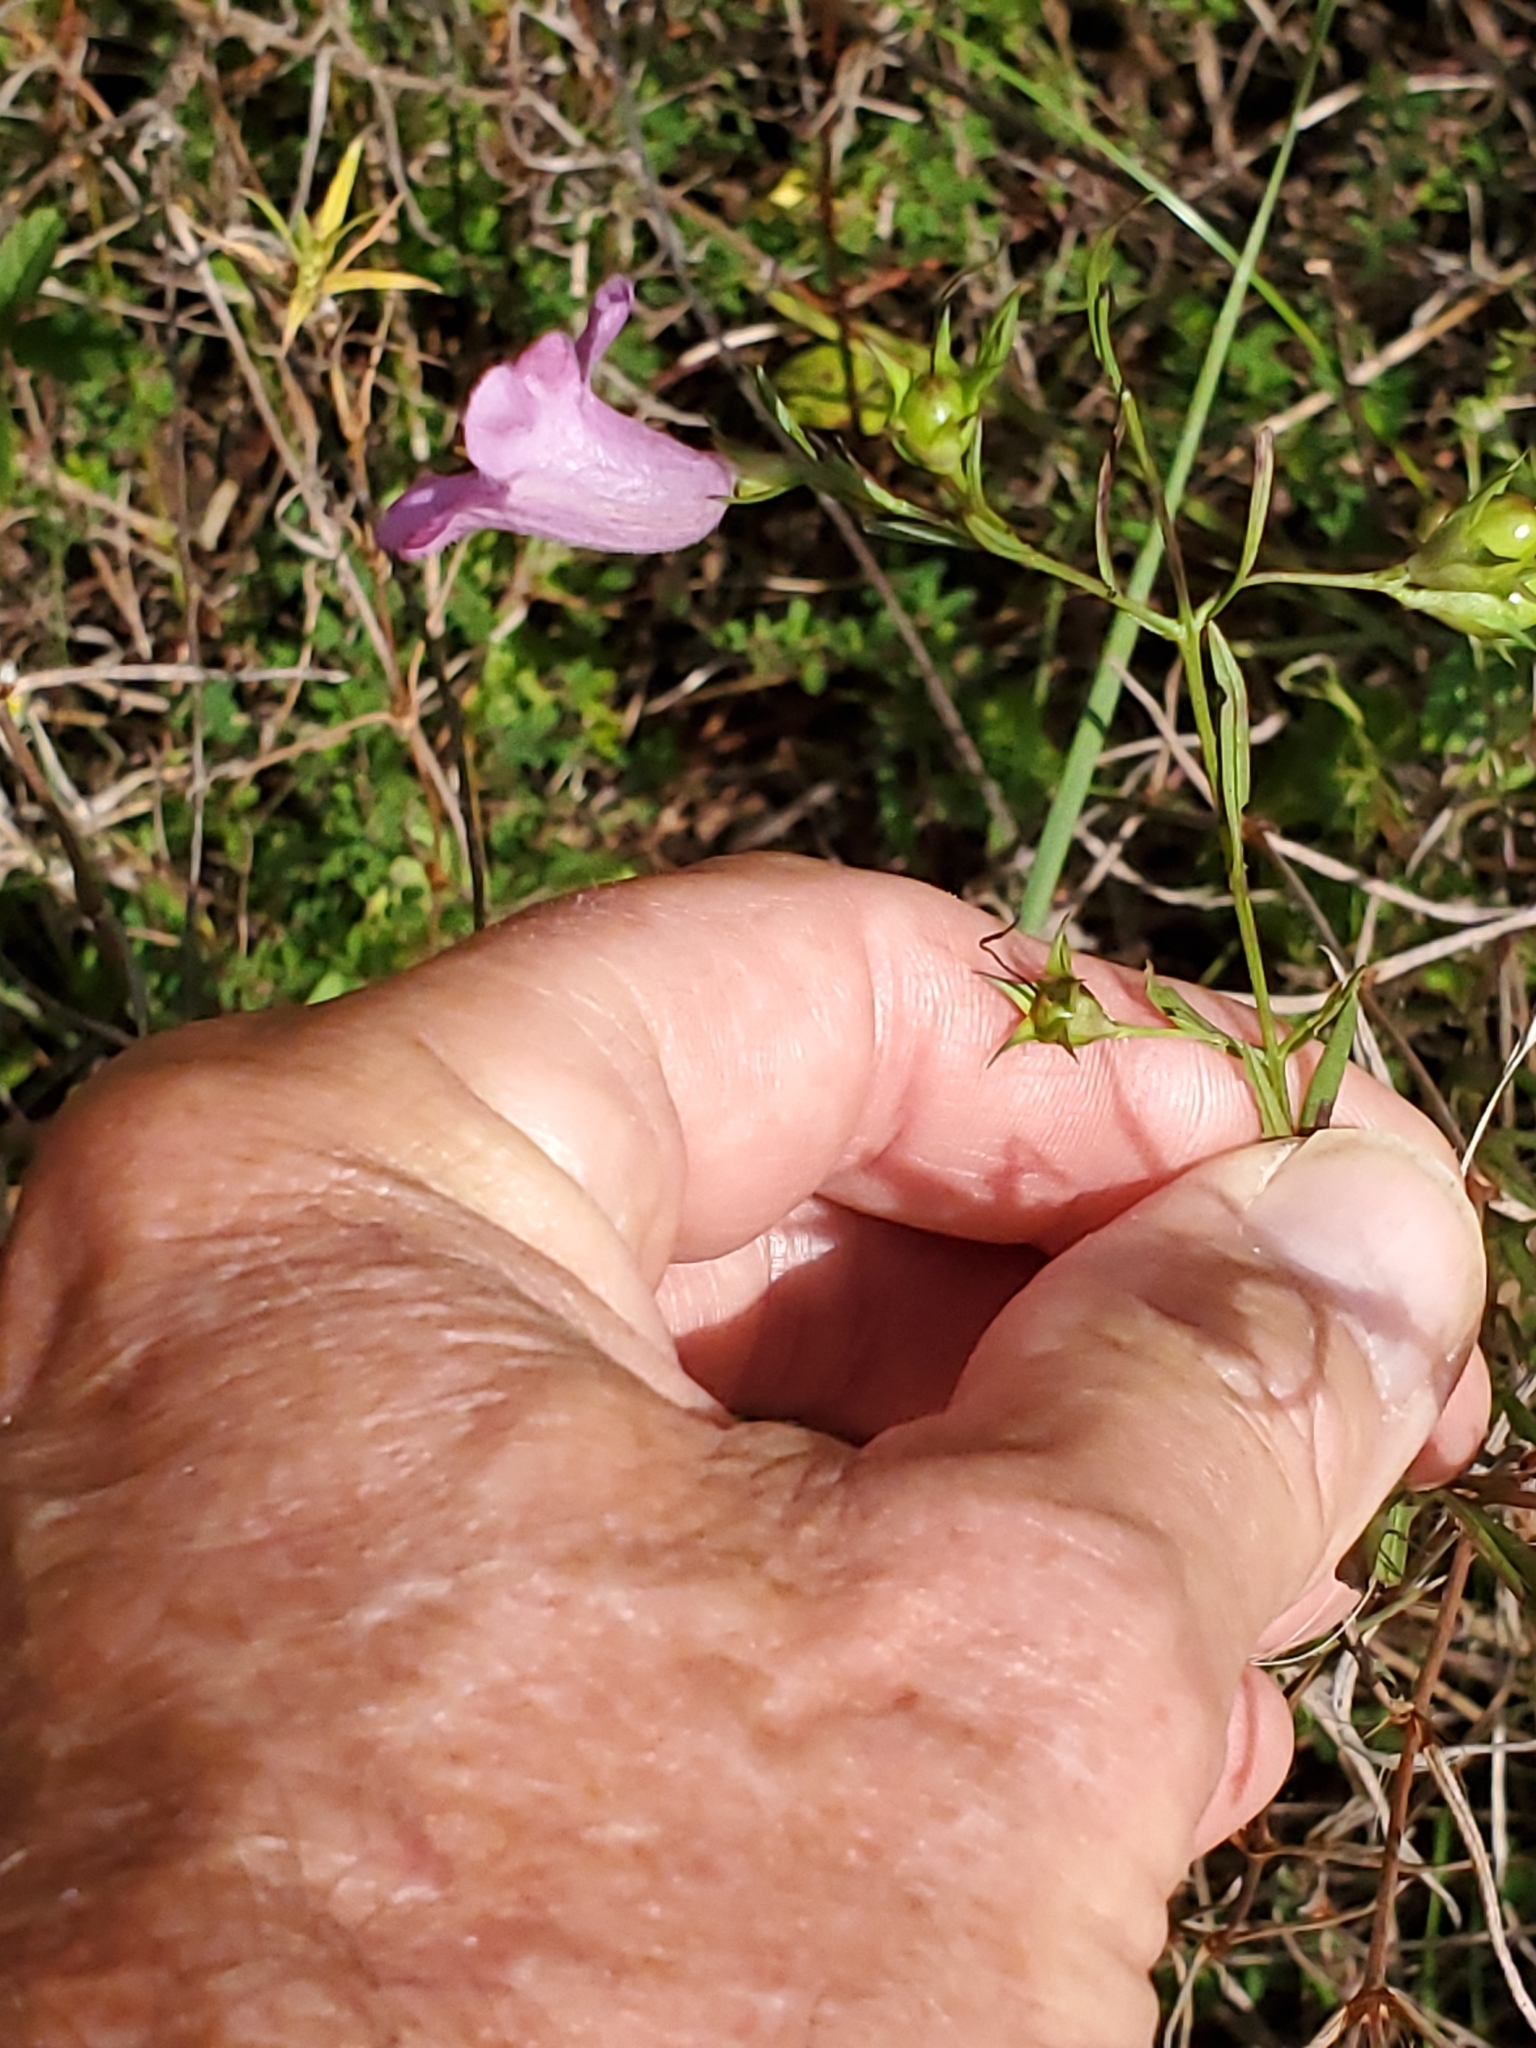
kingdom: Plantae
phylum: Tracheophyta
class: Magnoliopsida
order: Lamiales
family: Orobanchaceae
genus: Agalinis
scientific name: Agalinis heterophylla
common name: Prairie agalinis
